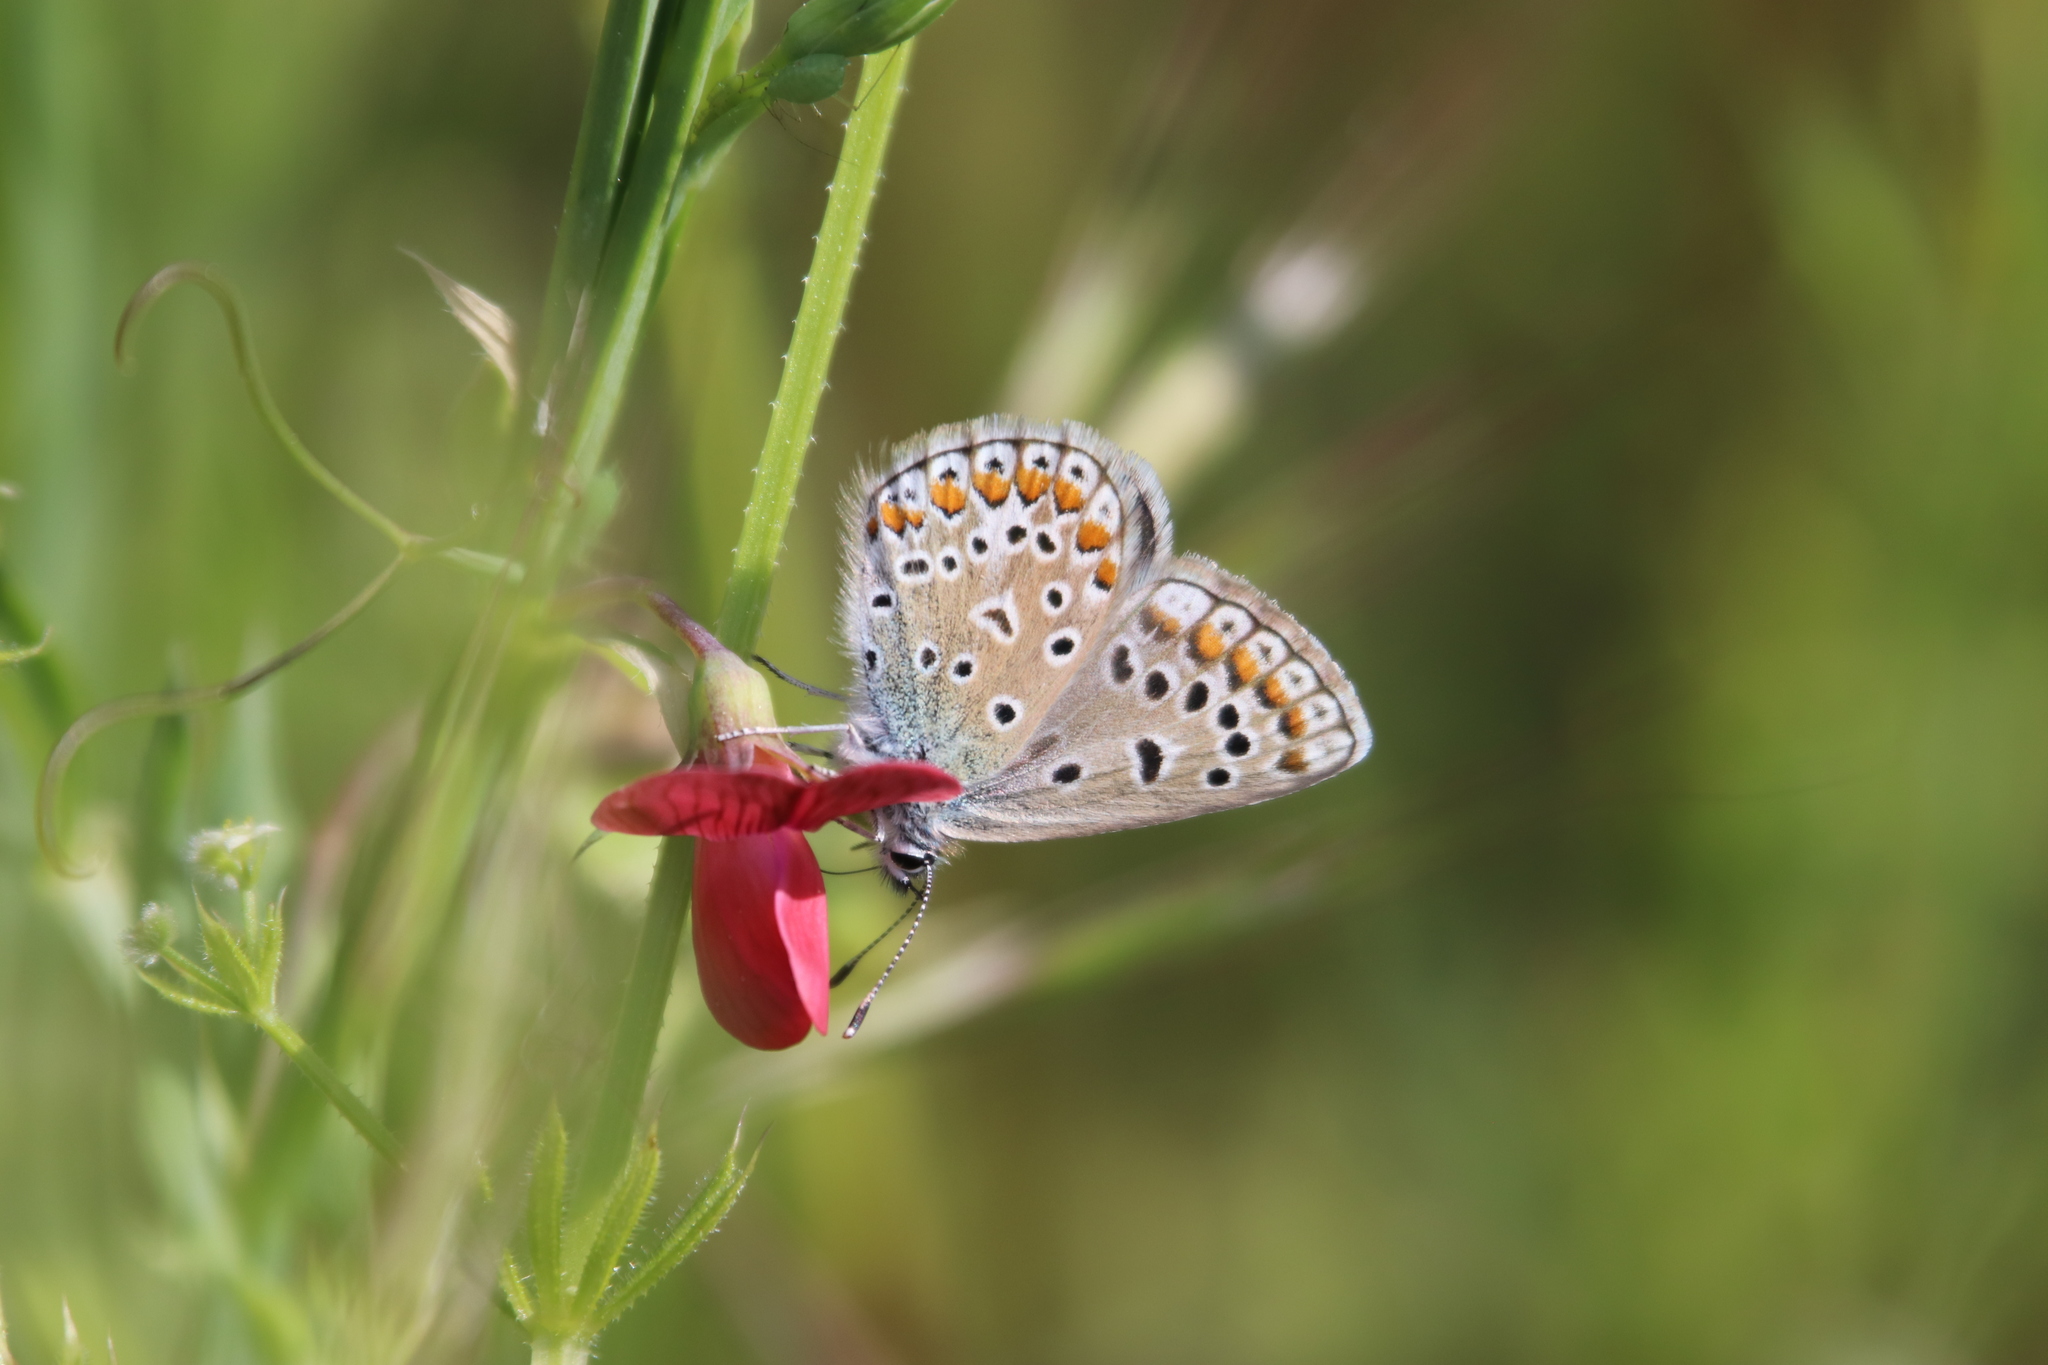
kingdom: Animalia
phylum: Arthropoda
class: Insecta
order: Lepidoptera
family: Lycaenidae
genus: Polyommatus
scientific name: Polyommatus icarus
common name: Common blue
